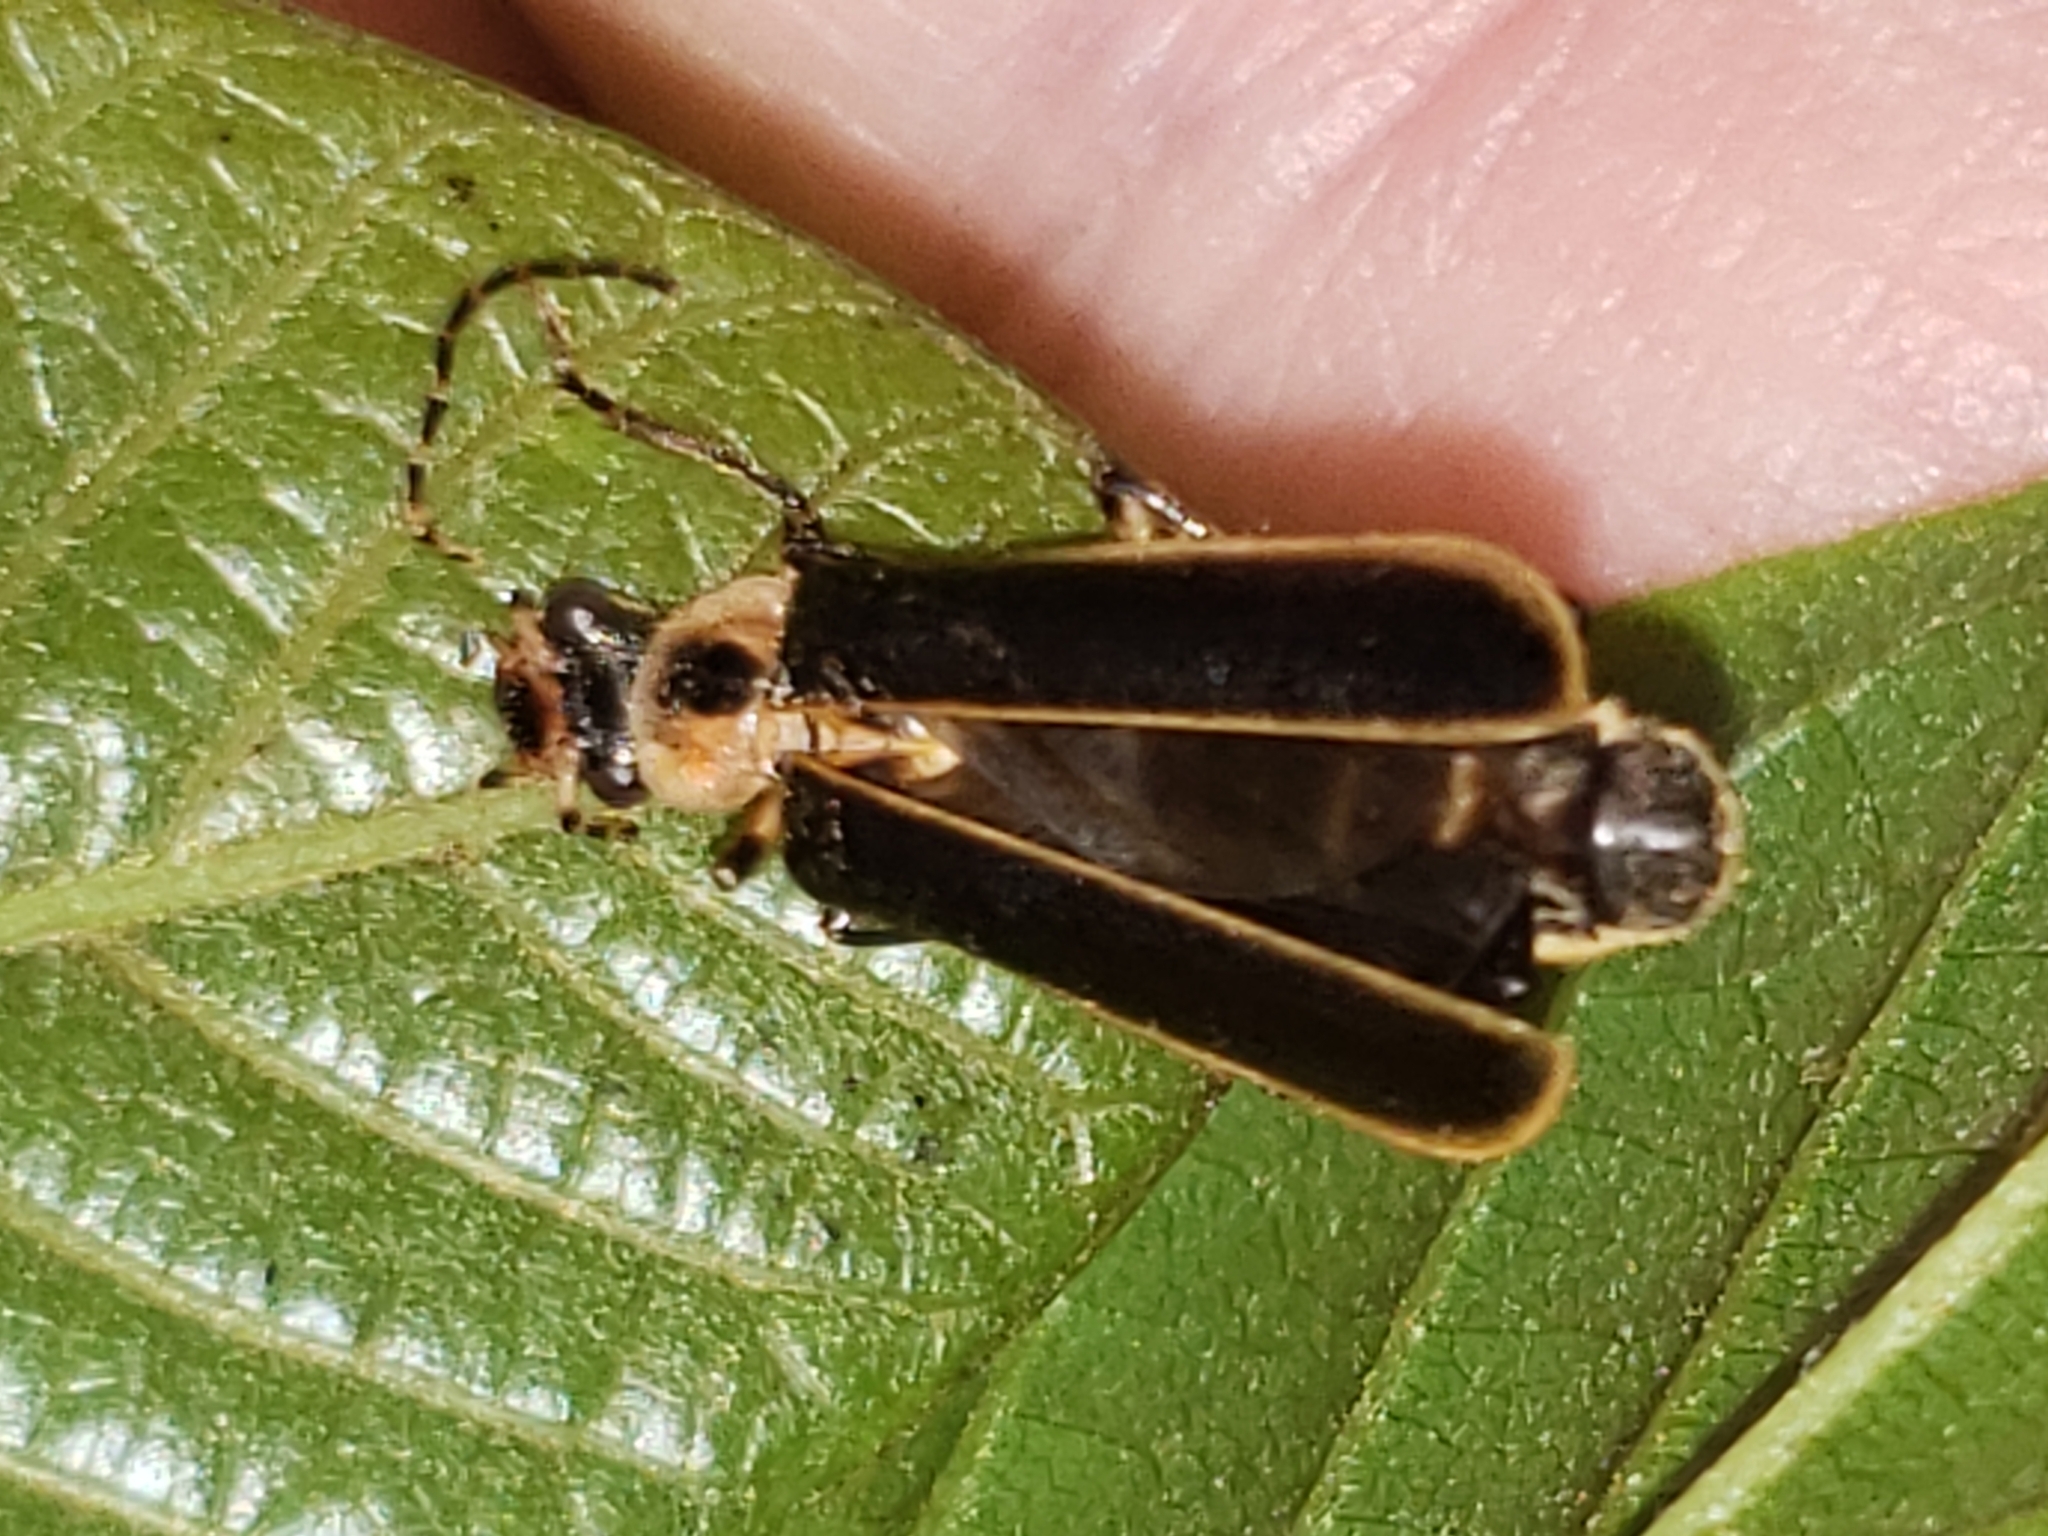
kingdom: Animalia
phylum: Arthropoda
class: Insecta
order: Coleoptera
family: Cantharidae
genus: Podabrus
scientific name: Podabrus basilaris
